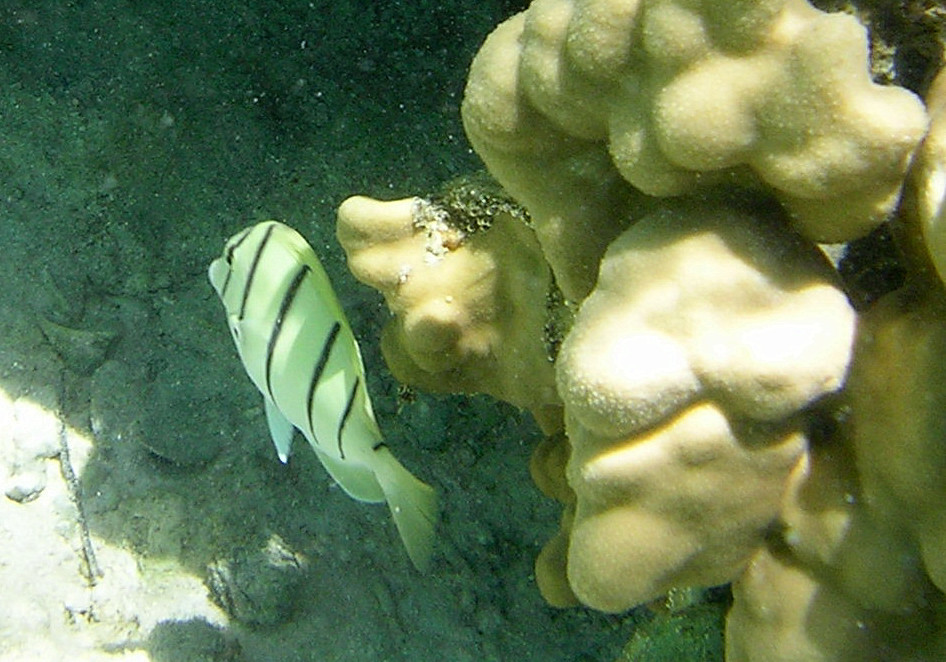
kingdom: Animalia
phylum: Chordata
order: Perciformes
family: Acanthuridae
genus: Acanthurus
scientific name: Acanthurus triostegus
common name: Convict surgeonfish
